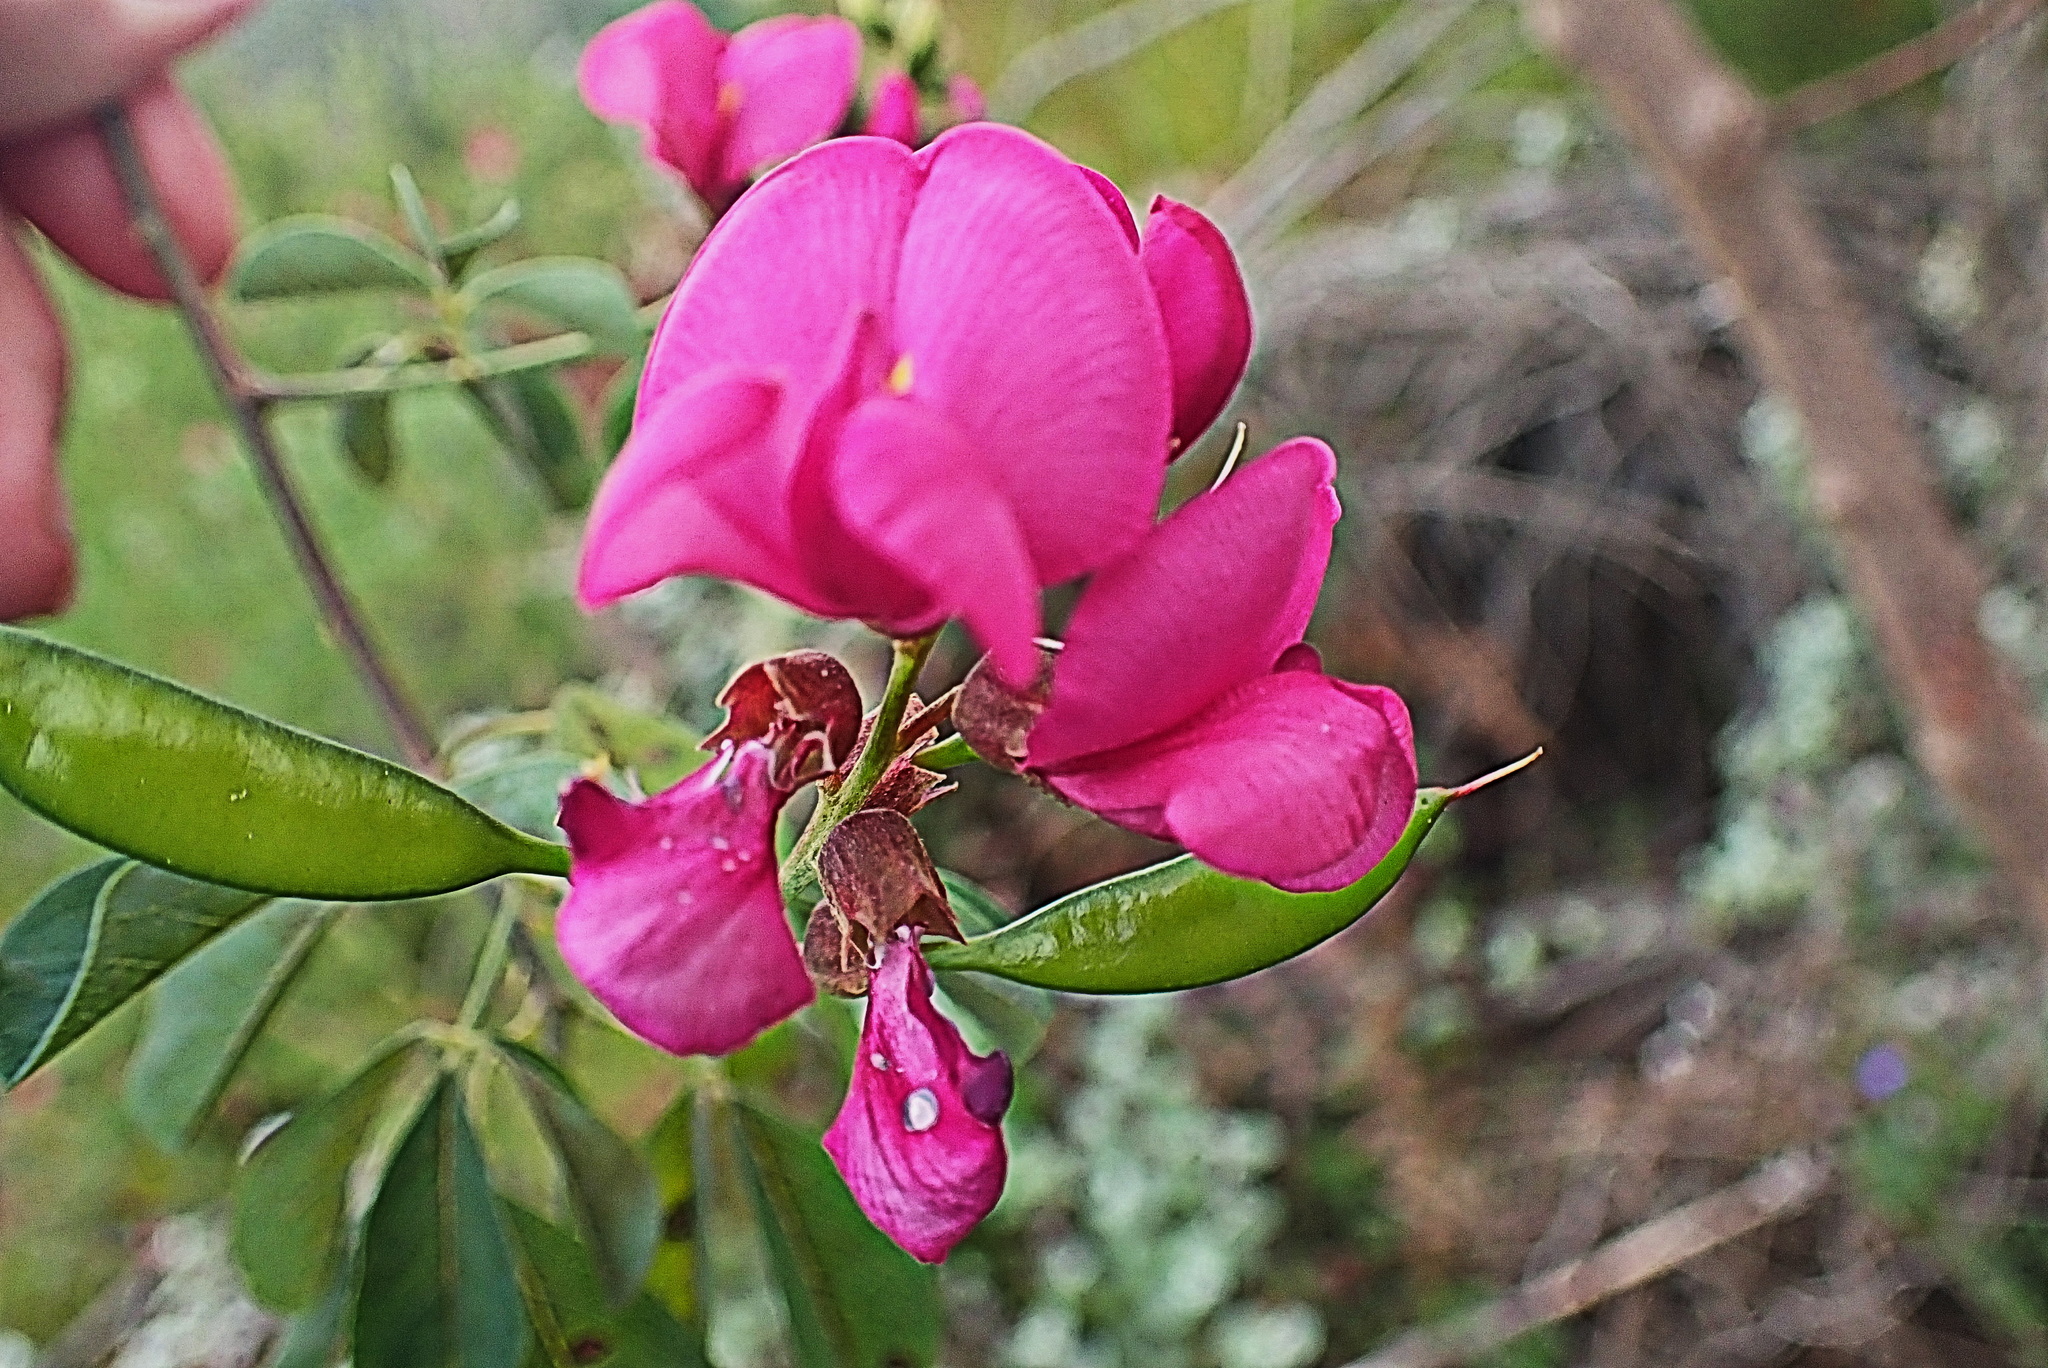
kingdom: Plantae
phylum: Tracheophyta
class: Magnoliopsida
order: Fabales
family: Fabaceae
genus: Hypocalyptus
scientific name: Hypocalyptus coluteoides
